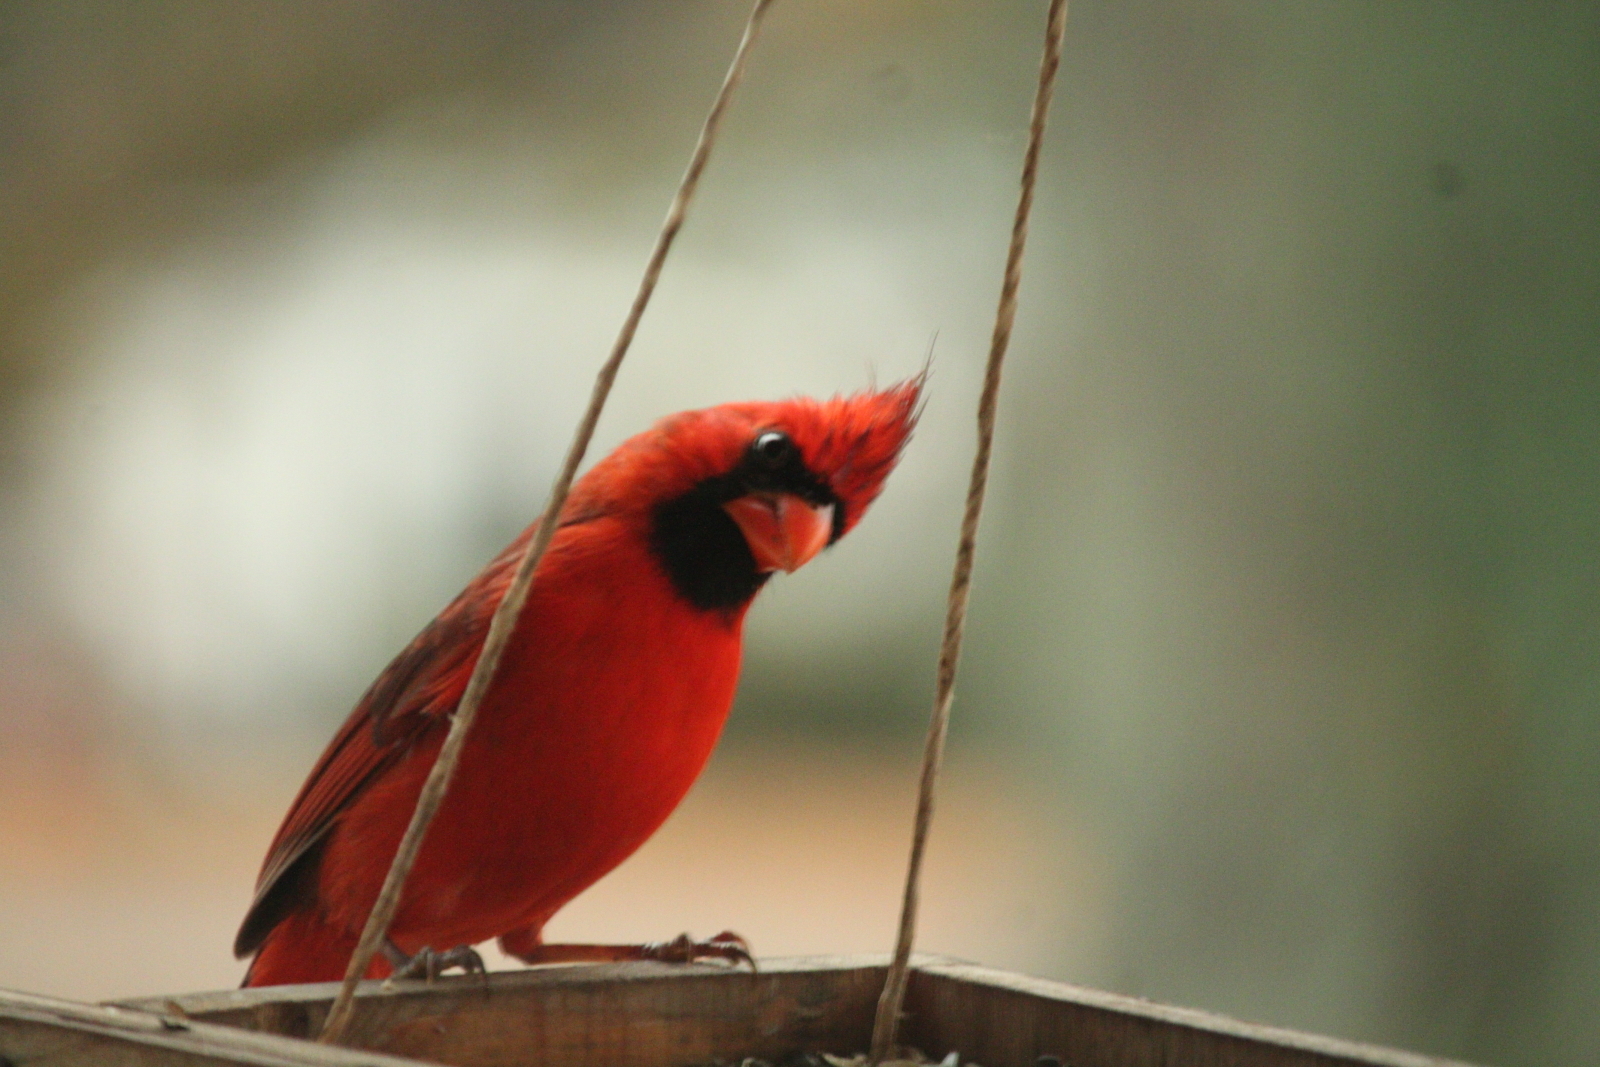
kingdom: Animalia
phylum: Chordata
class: Aves
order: Passeriformes
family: Cardinalidae
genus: Cardinalis
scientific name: Cardinalis cardinalis
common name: Northern cardinal
